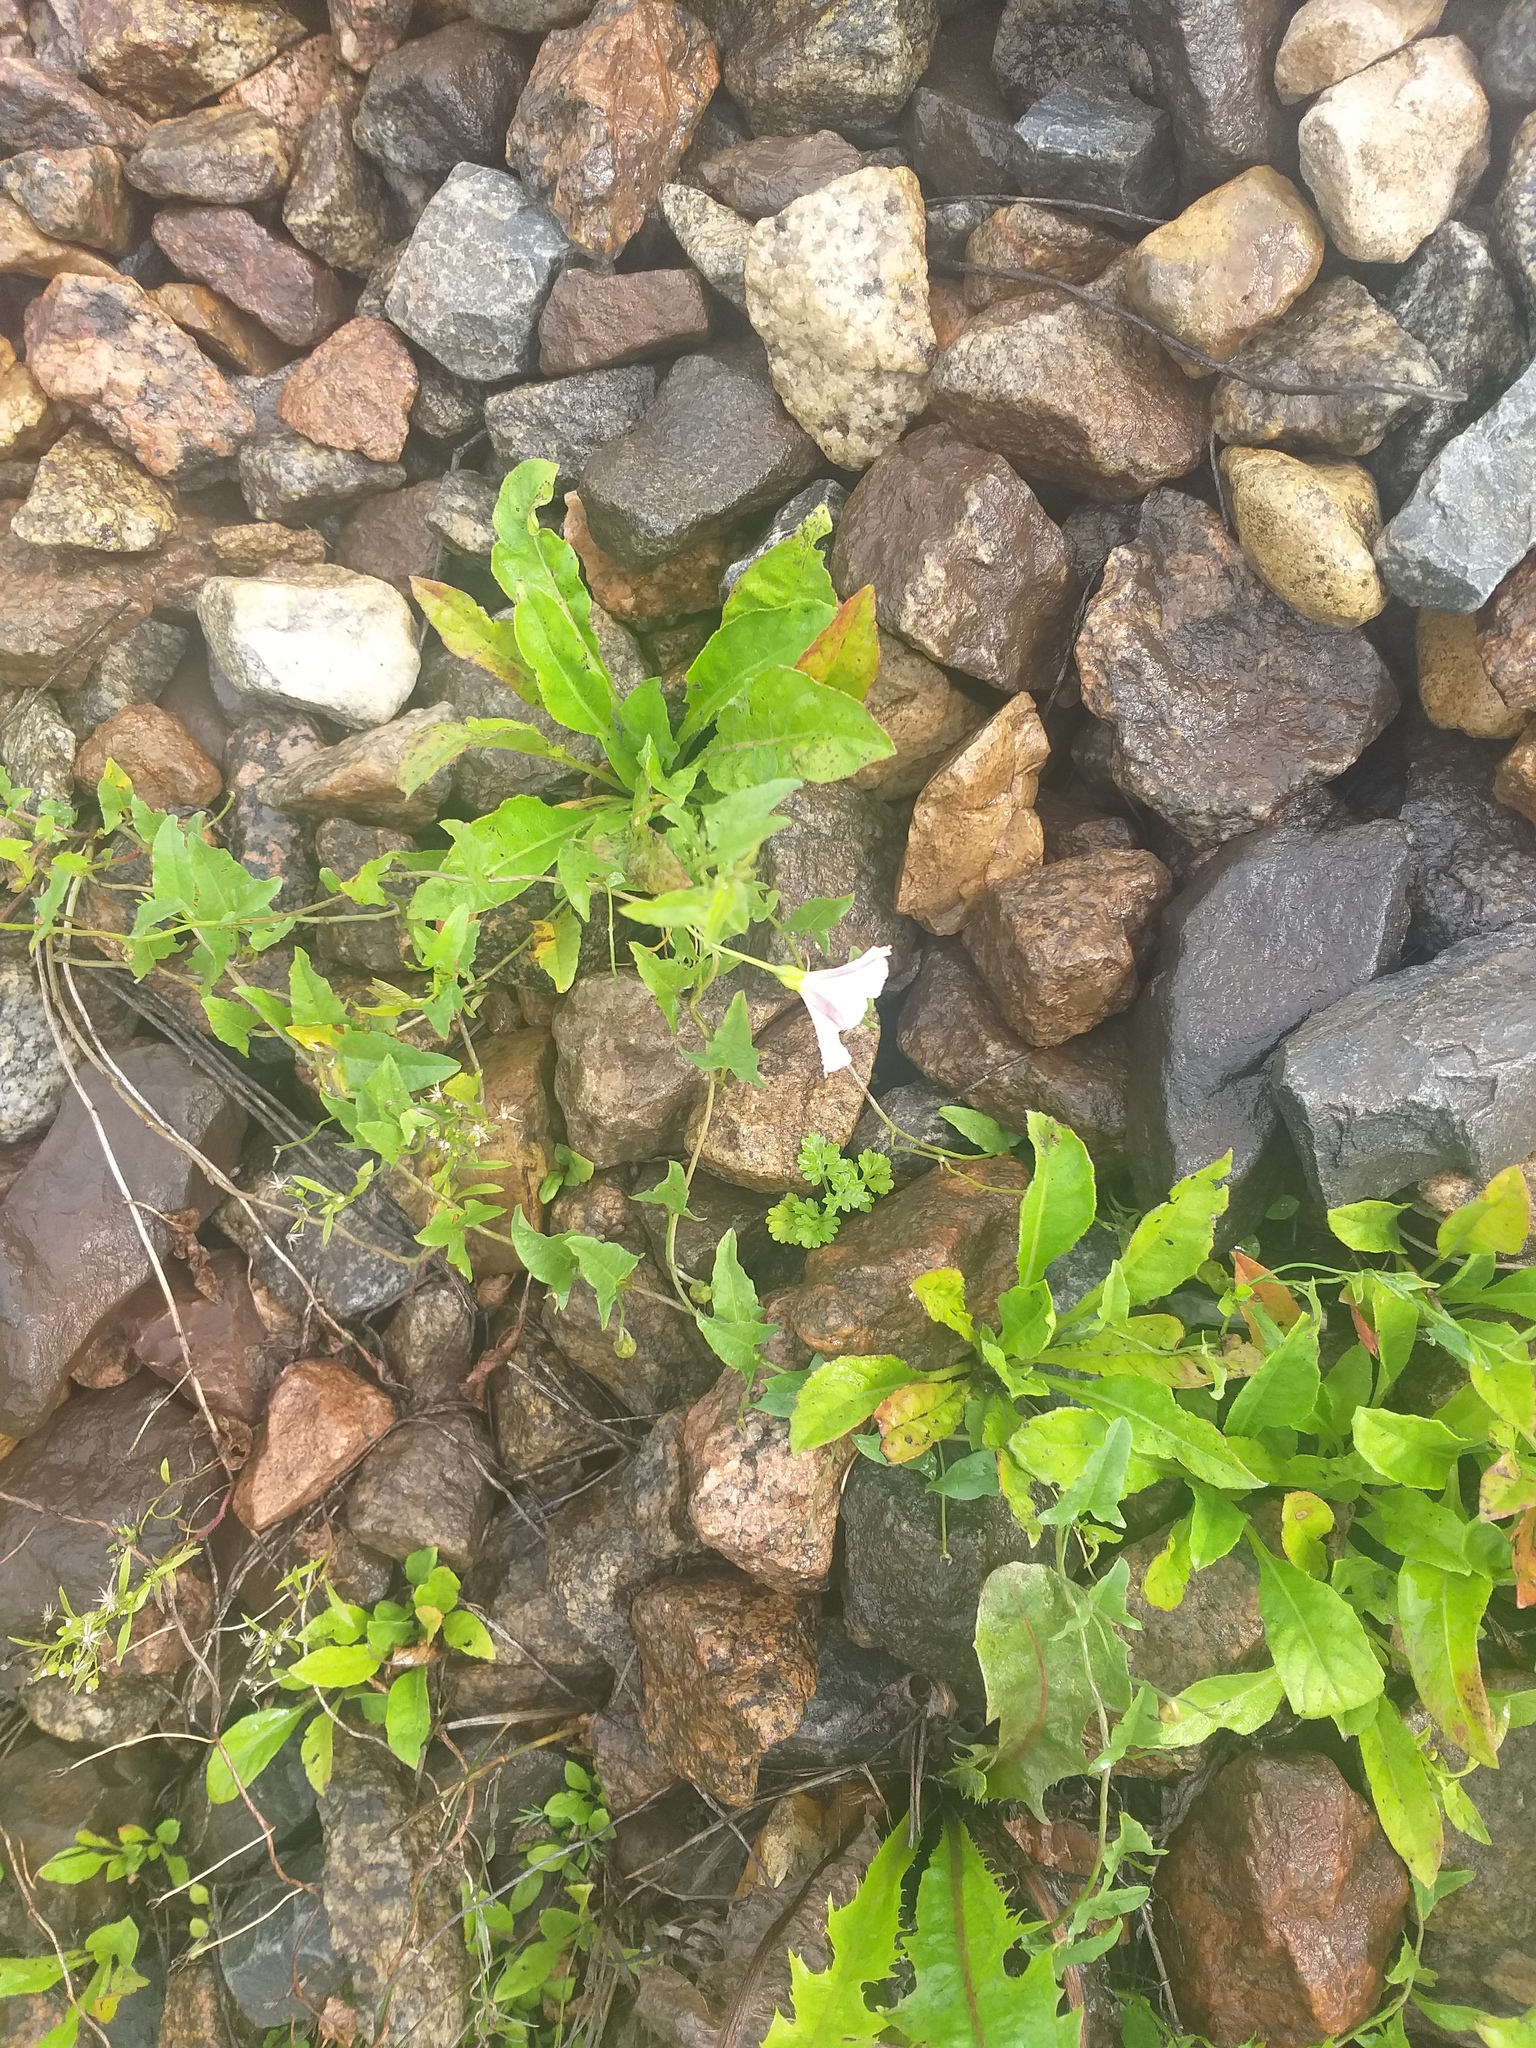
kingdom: Plantae
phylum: Tracheophyta
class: Magnoliopsida
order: Solanales
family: Convolvulaceae
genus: Convolvulus
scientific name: Convolvulus arvensis
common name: Field bindweed
